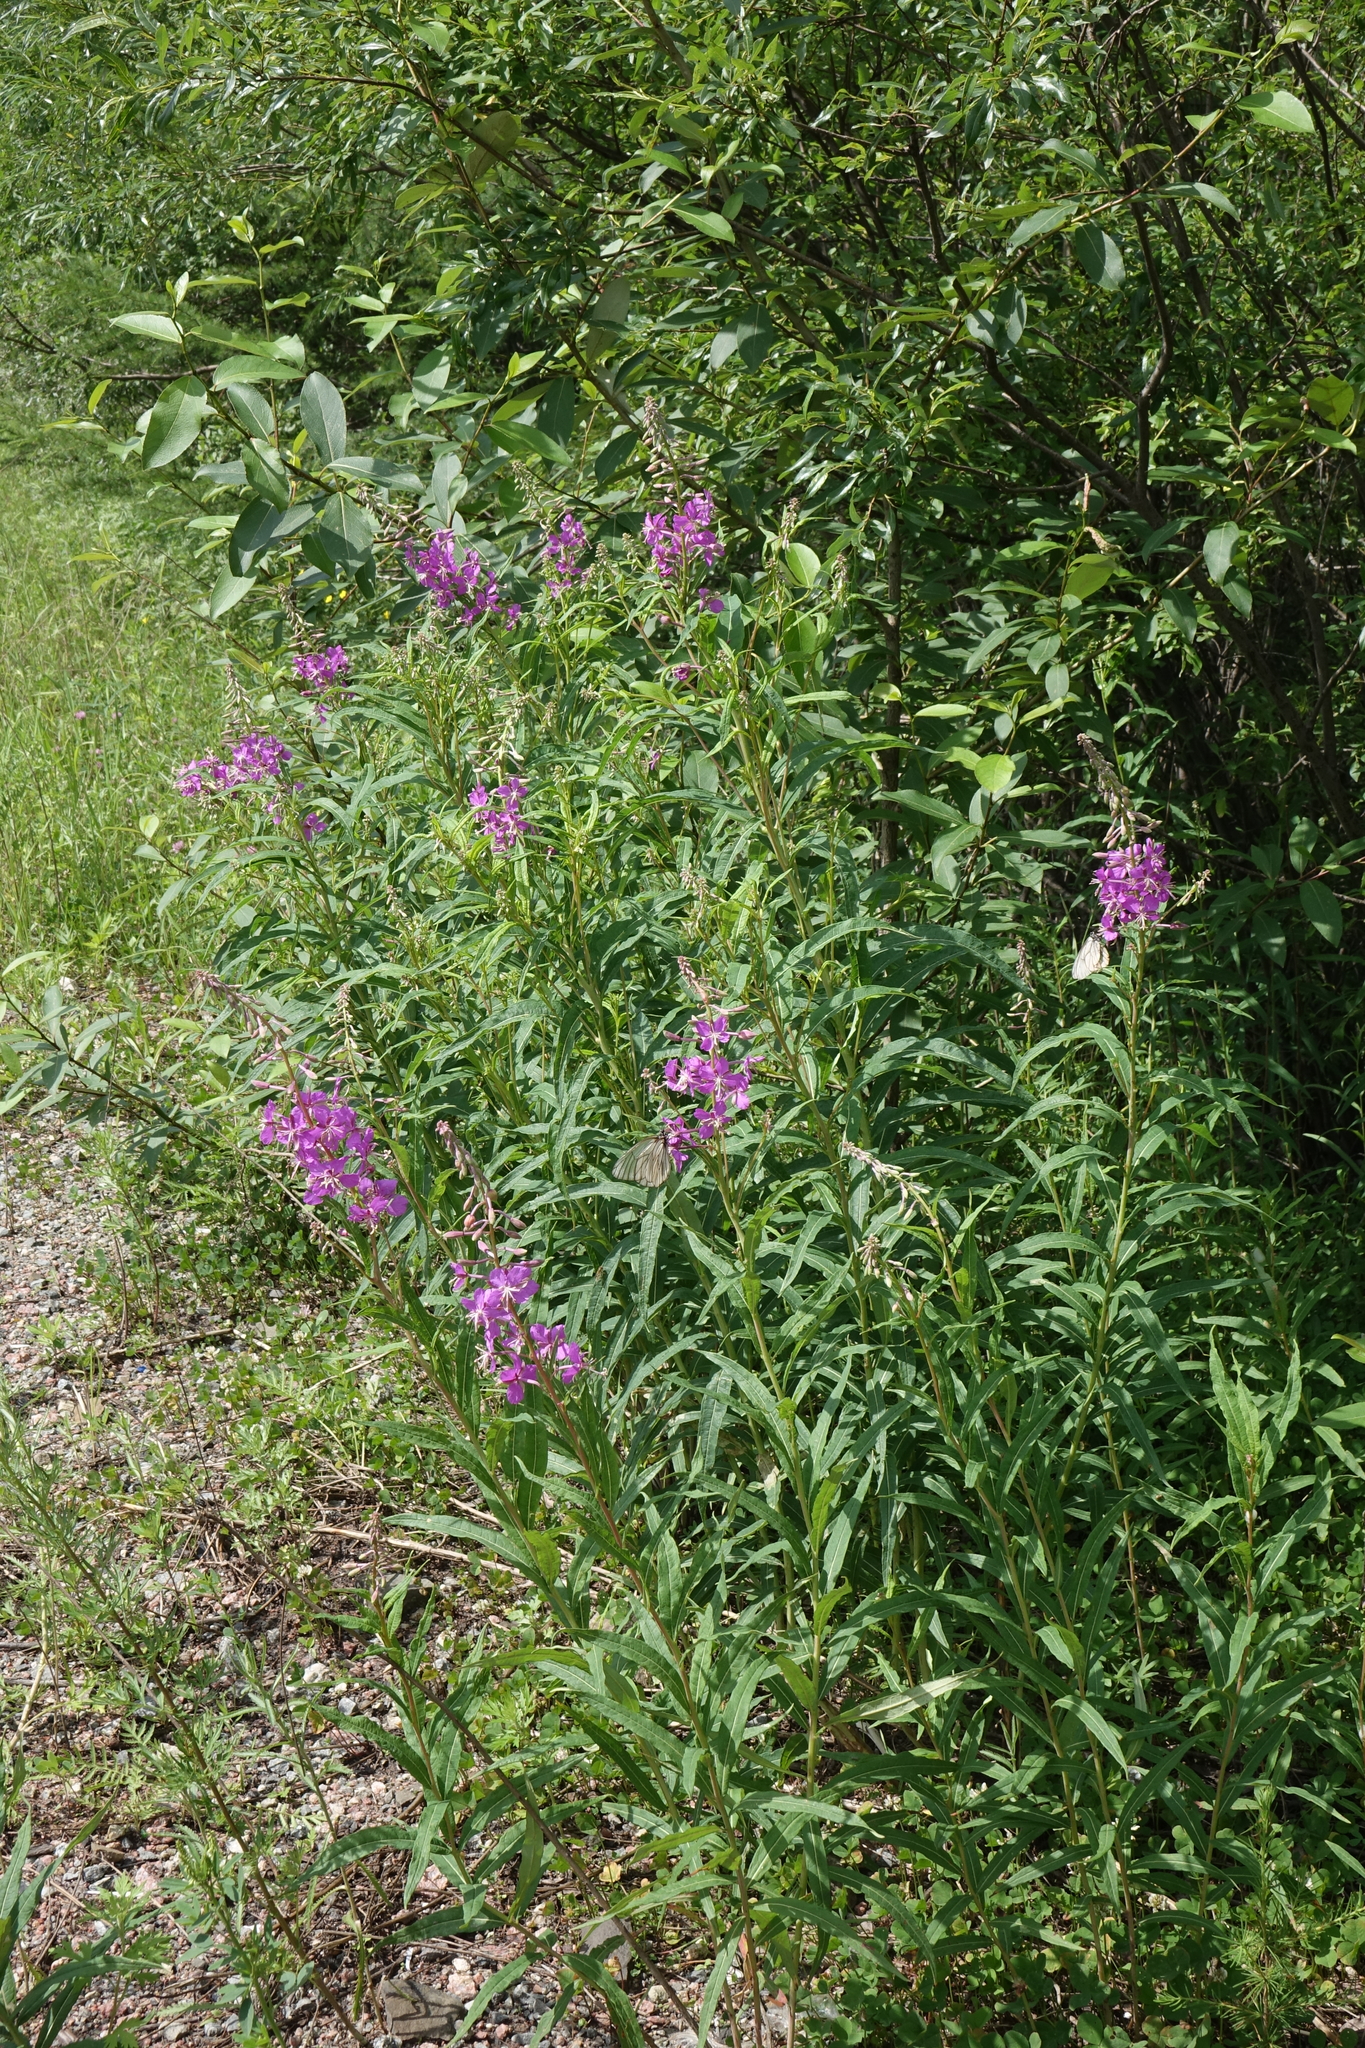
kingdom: Plantae
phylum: Tracheophyta
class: Magnoliopsida
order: Myrtales
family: Onagraceae
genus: Chamaenerion
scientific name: Chamaenerion angustifolium
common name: Fireweed
